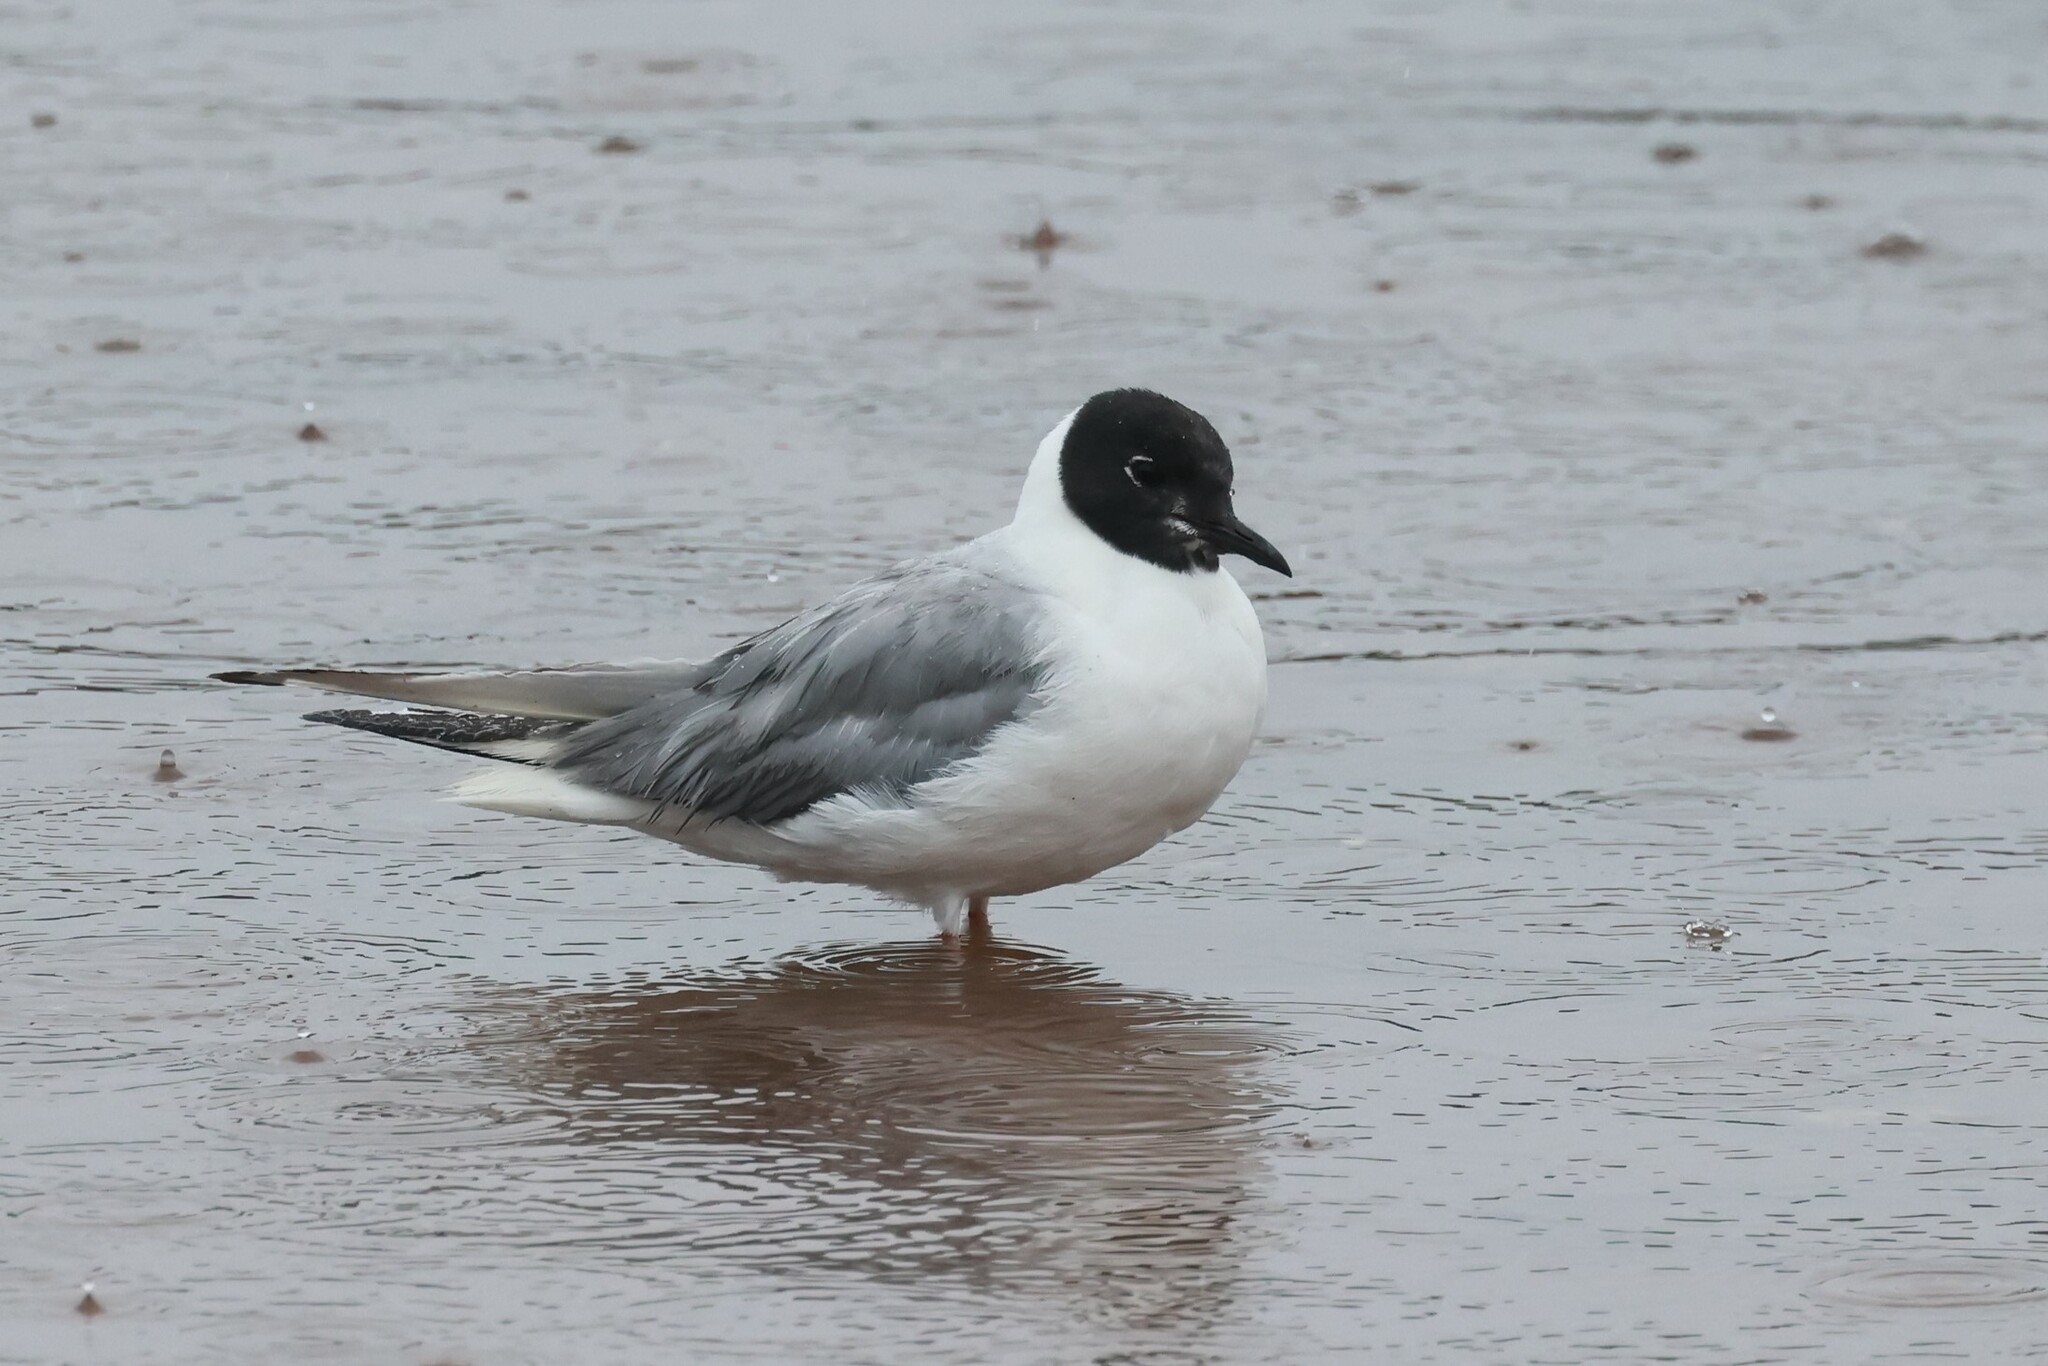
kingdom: Animalia
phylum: Chordata
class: Aves
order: Charadriiformes
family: Laridae
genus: Chroicocephalus
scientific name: Chroicocephalus philadelphia
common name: Bonaparte's gull
